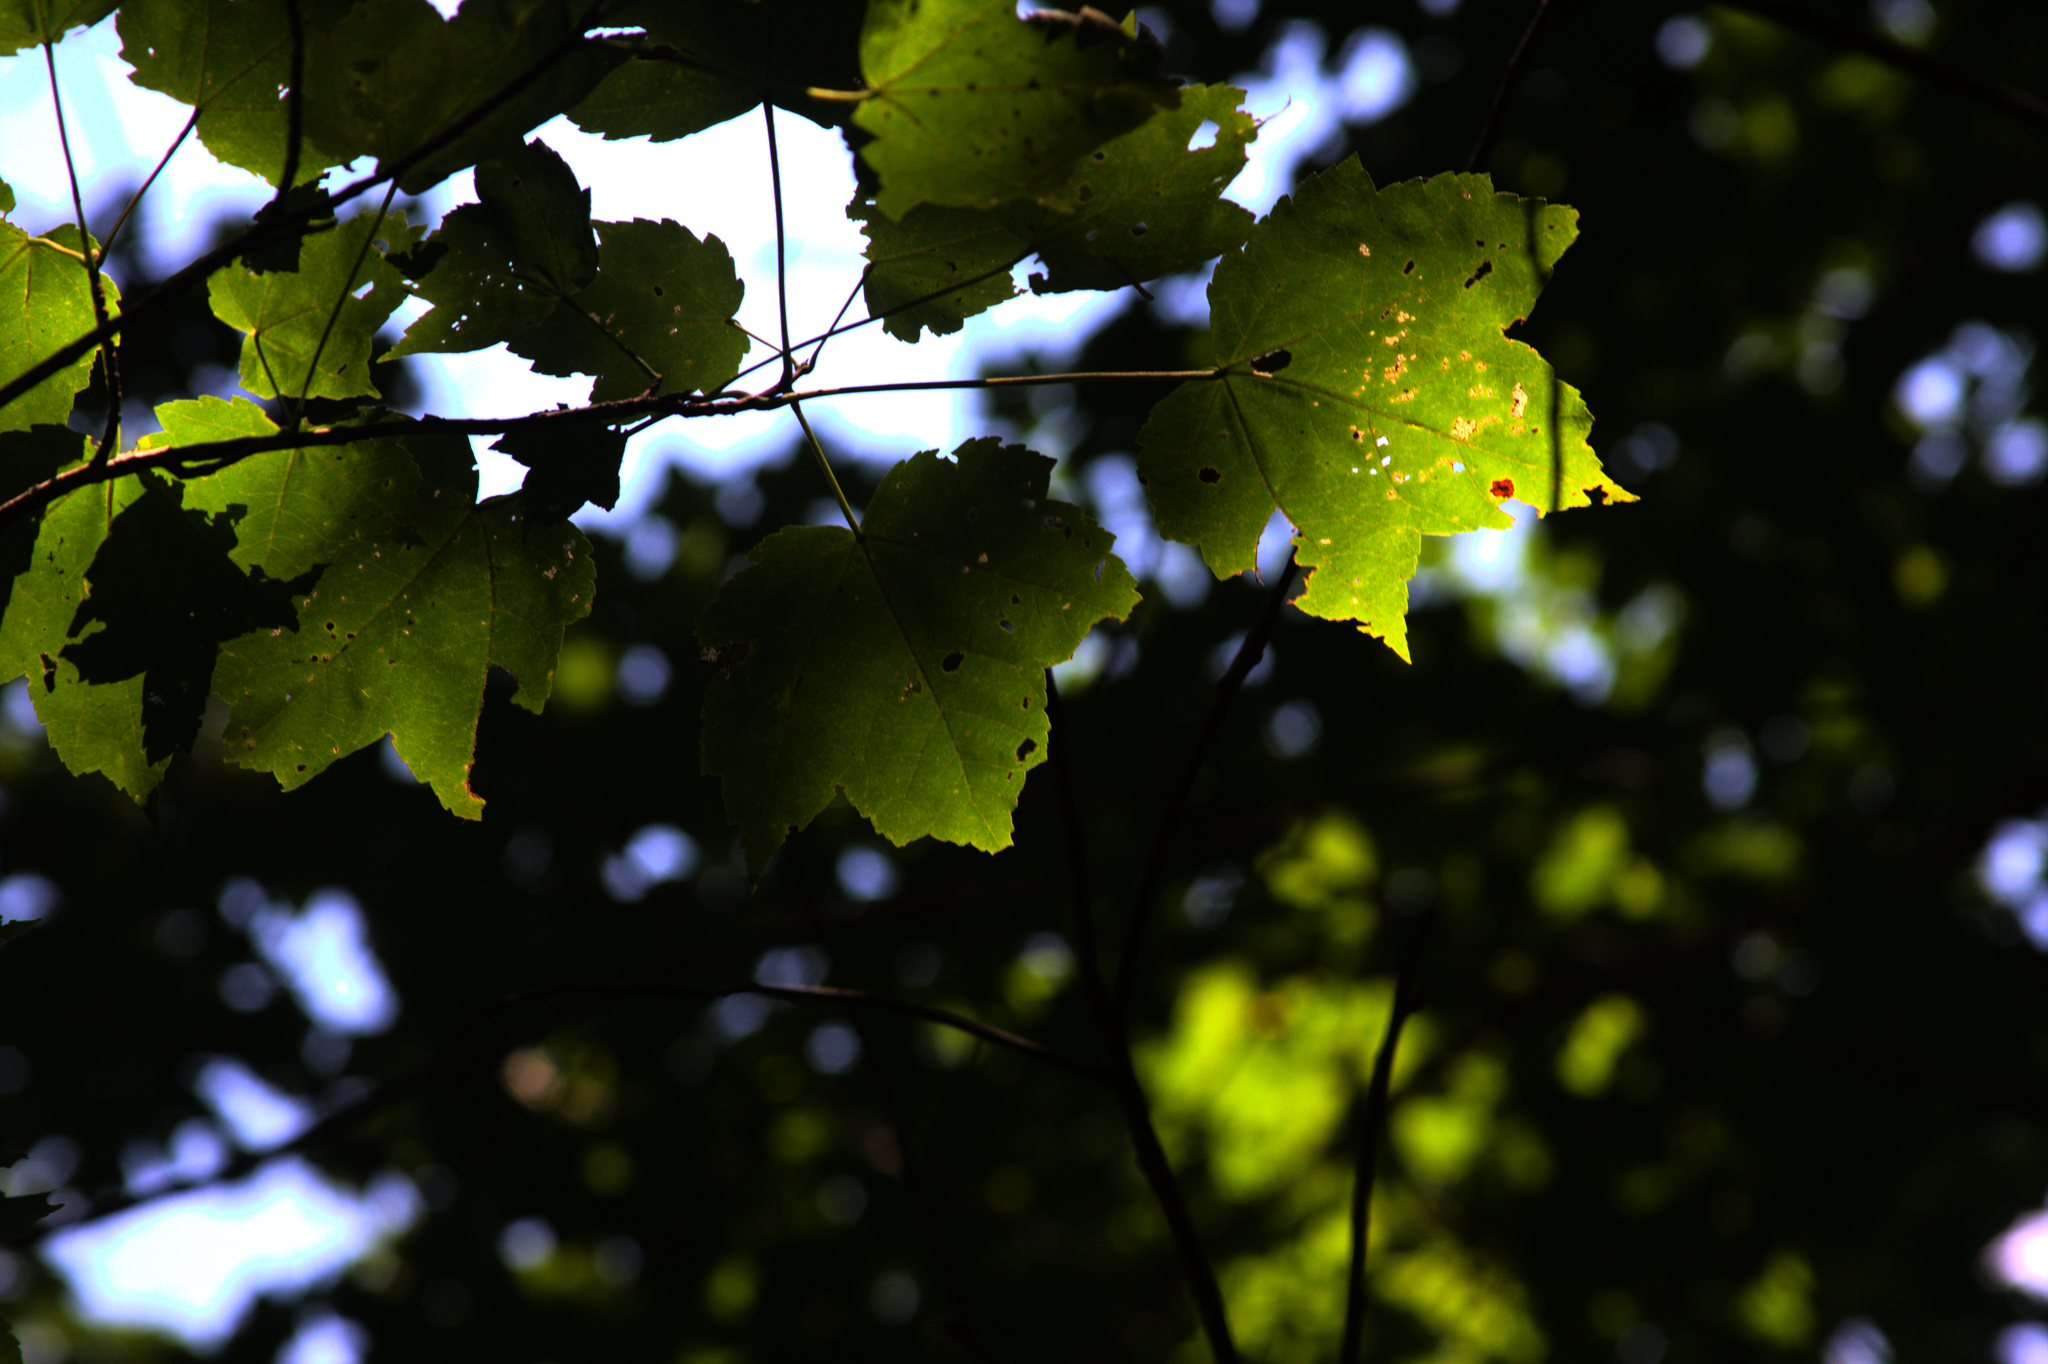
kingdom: Plantae
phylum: Tracheophyta
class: Magnoliopsida
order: Sapindales
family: Sapindaceae
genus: Acer
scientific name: Acer rubrum
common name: Red maple
